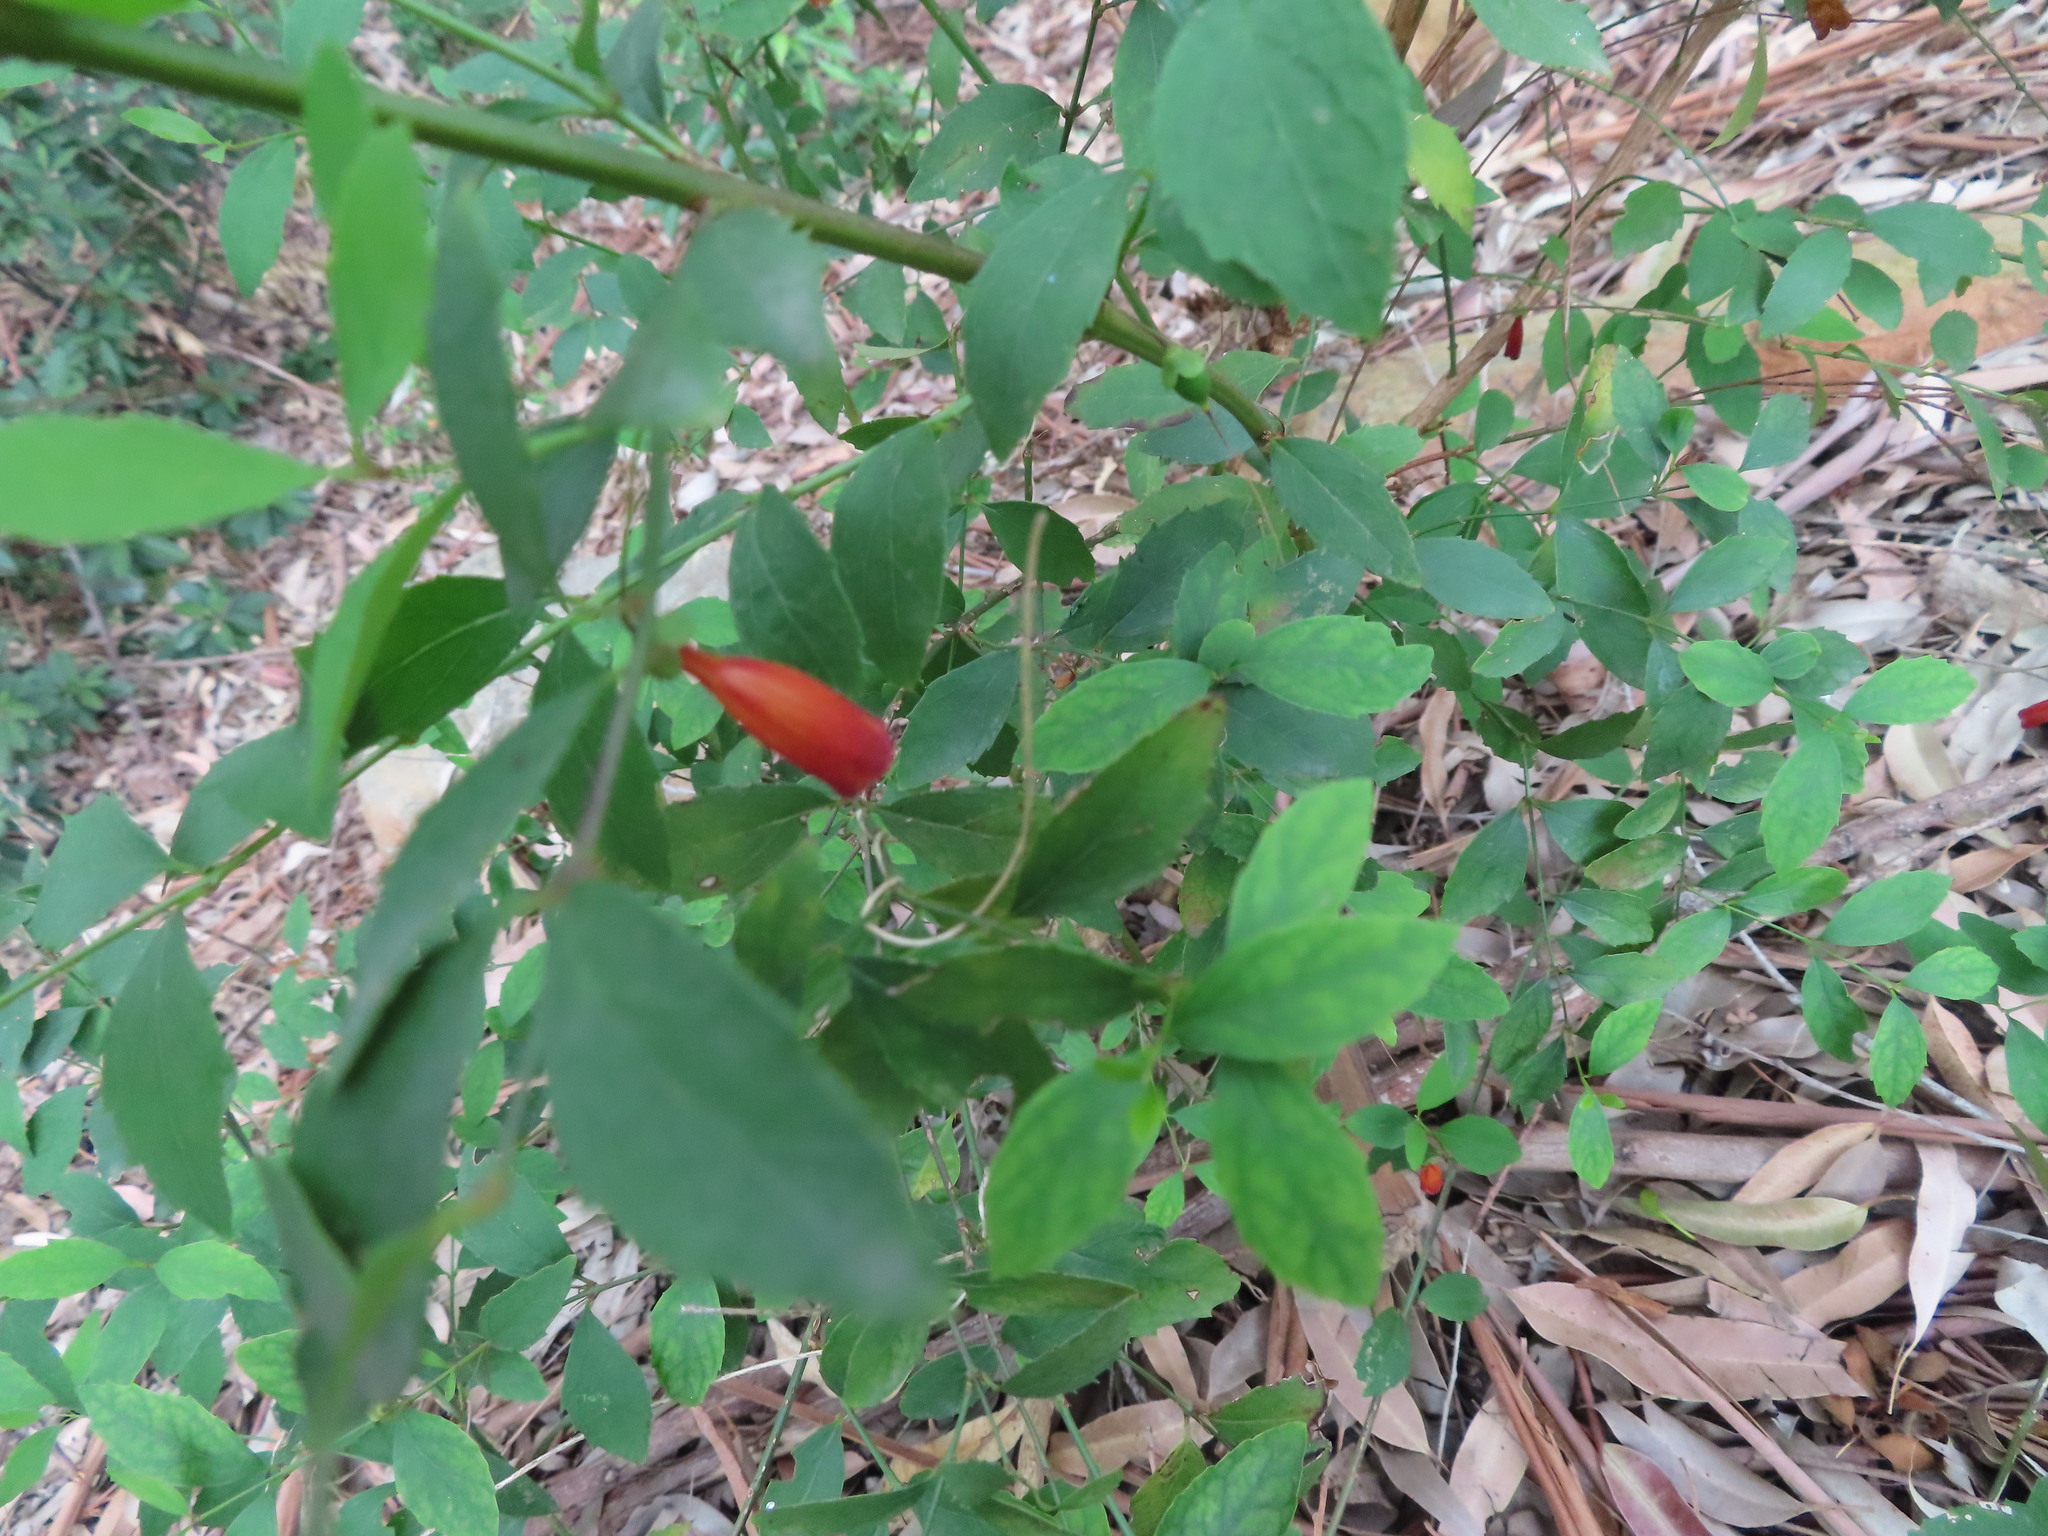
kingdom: Plantae
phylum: Tracheophyta
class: Magnoliopsida
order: Lamiales
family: Stilbaceae
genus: Halleria
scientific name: Halleria elliptica
